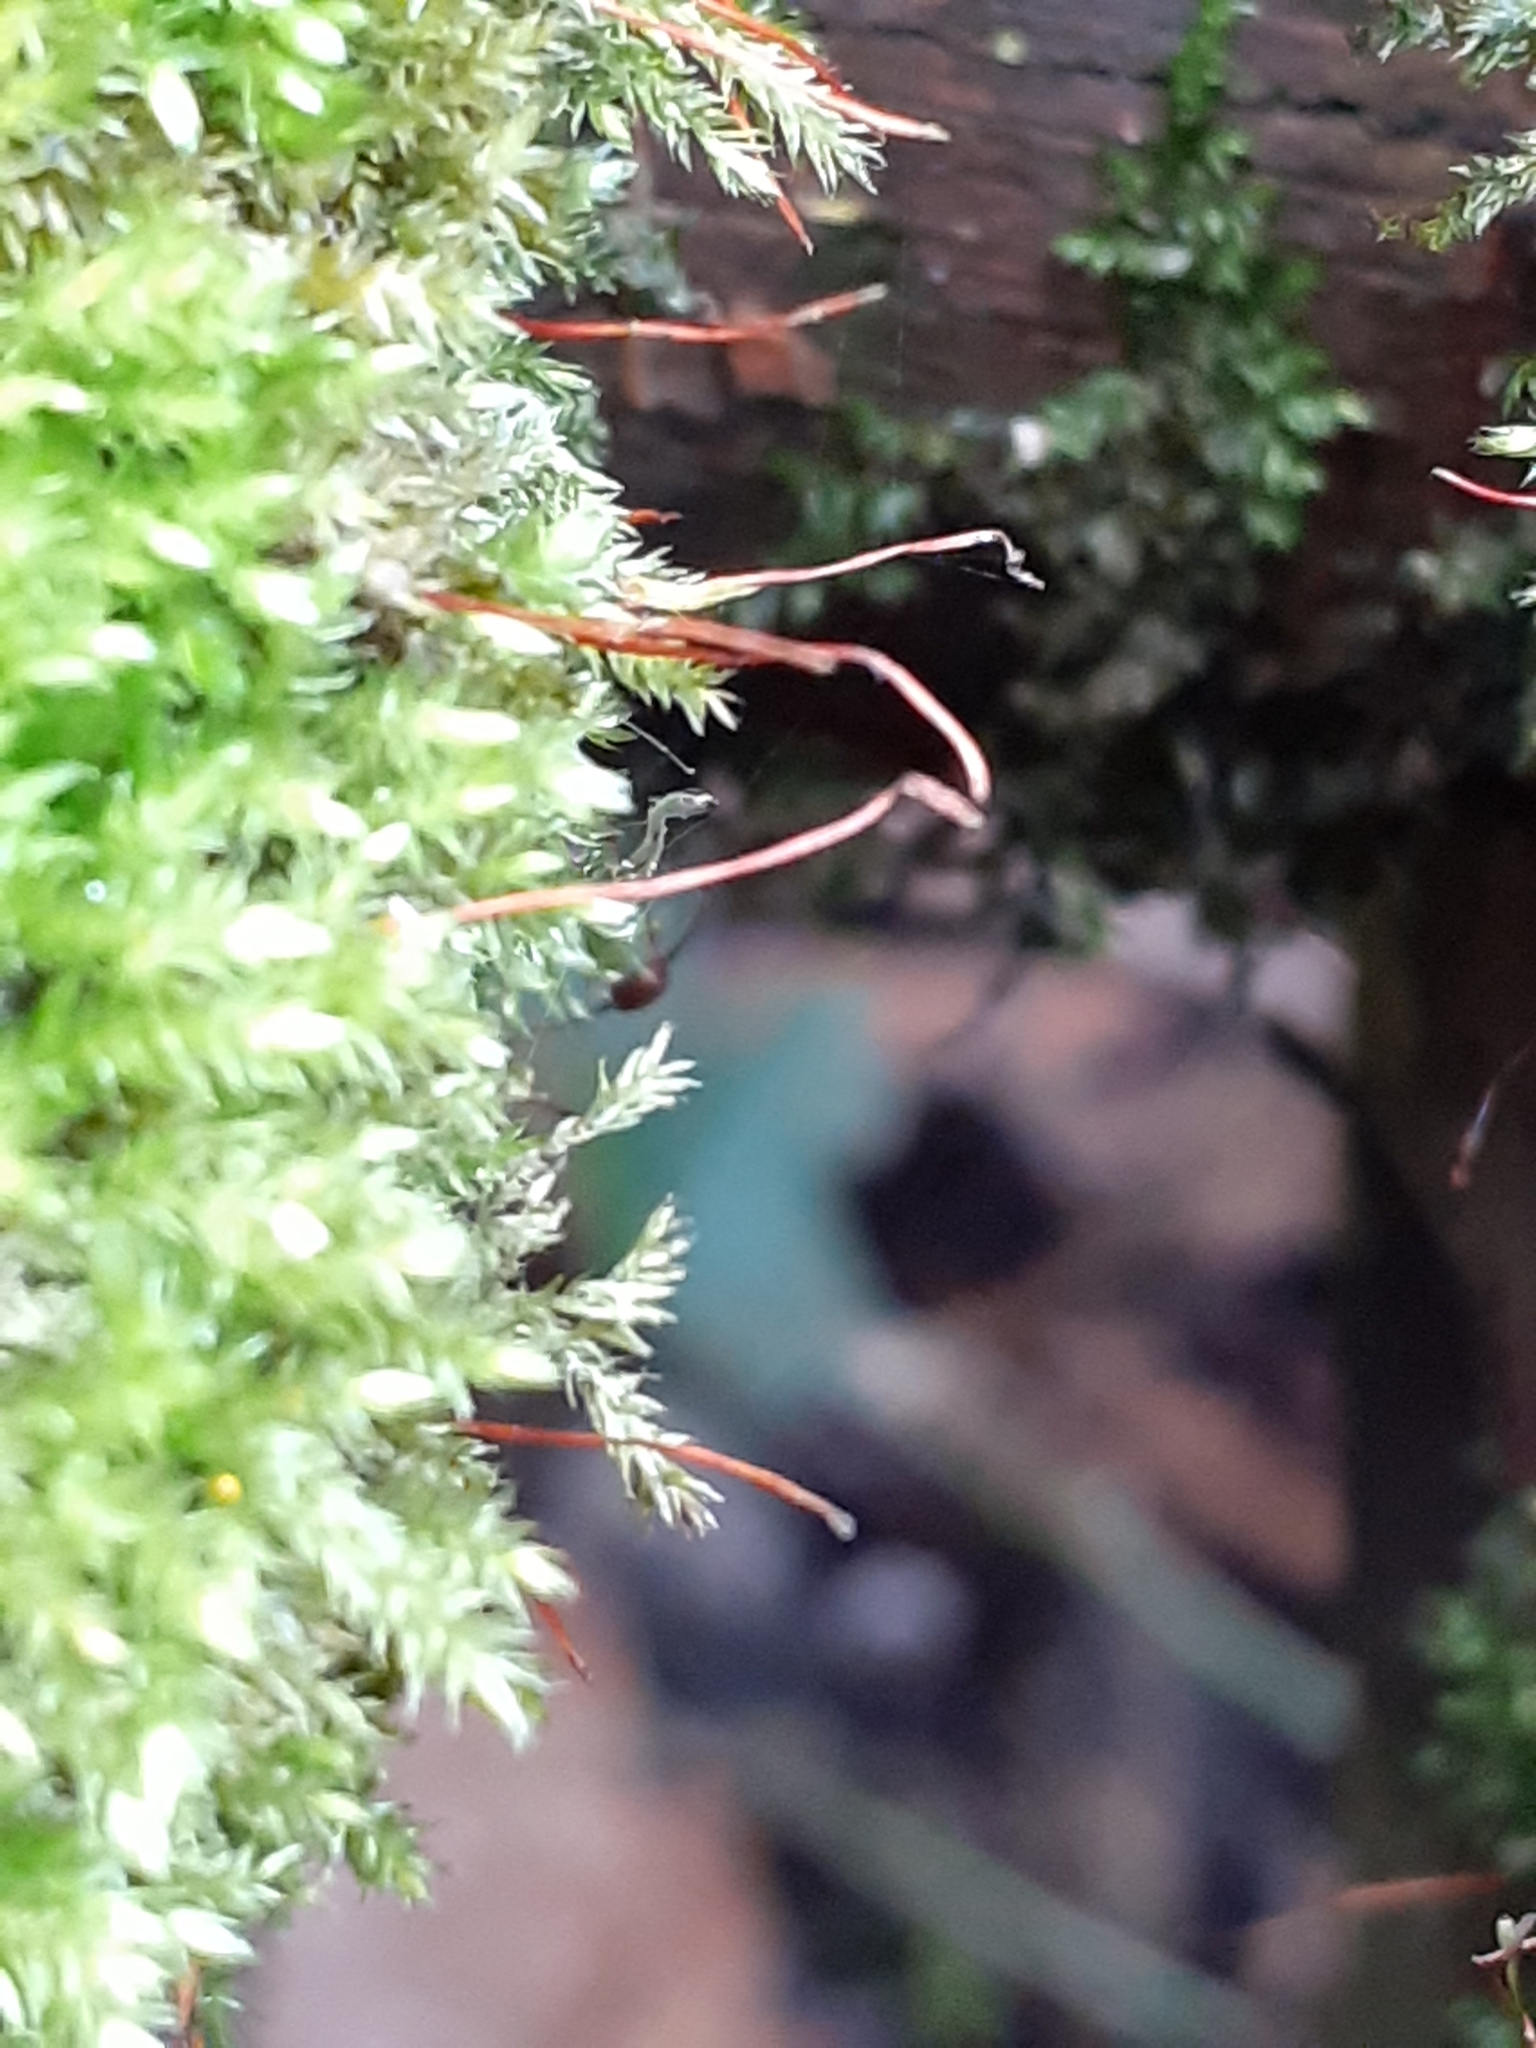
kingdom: Plantae
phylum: Bryophyta
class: Bryopsida
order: Hypnales
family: Hypnaceae
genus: Hypnum
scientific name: Hypnum cupressiforme
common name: Cypress-leaved plait-moss
